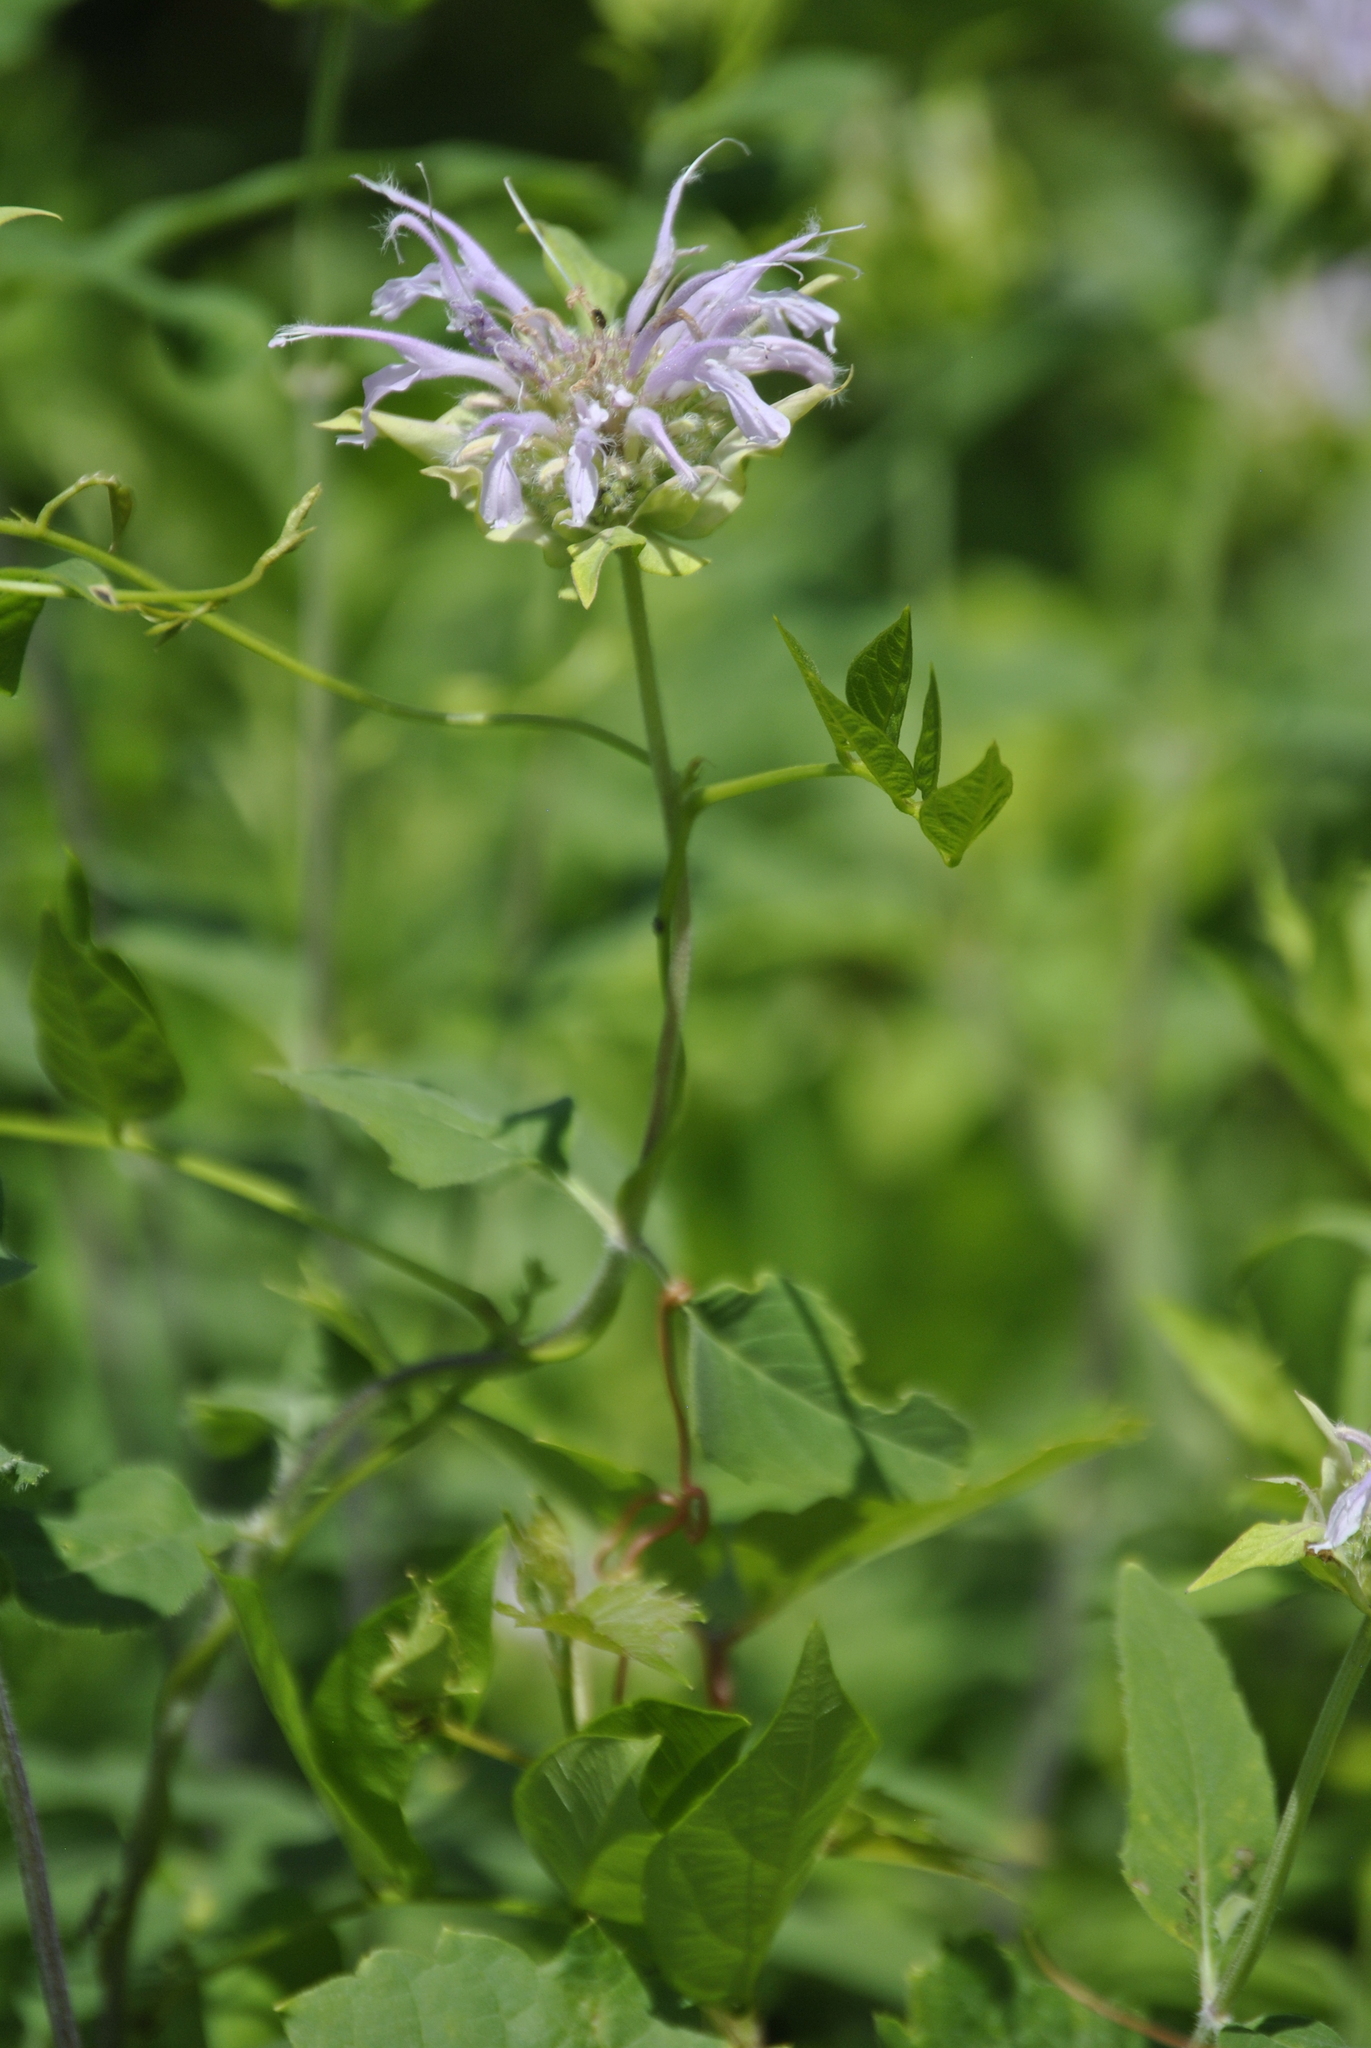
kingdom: Plantae
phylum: Tracheophyta
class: Magnoliopsida
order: Lamiales
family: Lamiaceae
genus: Monarda
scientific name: Monarda fistulosa
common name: Purple beebalm
